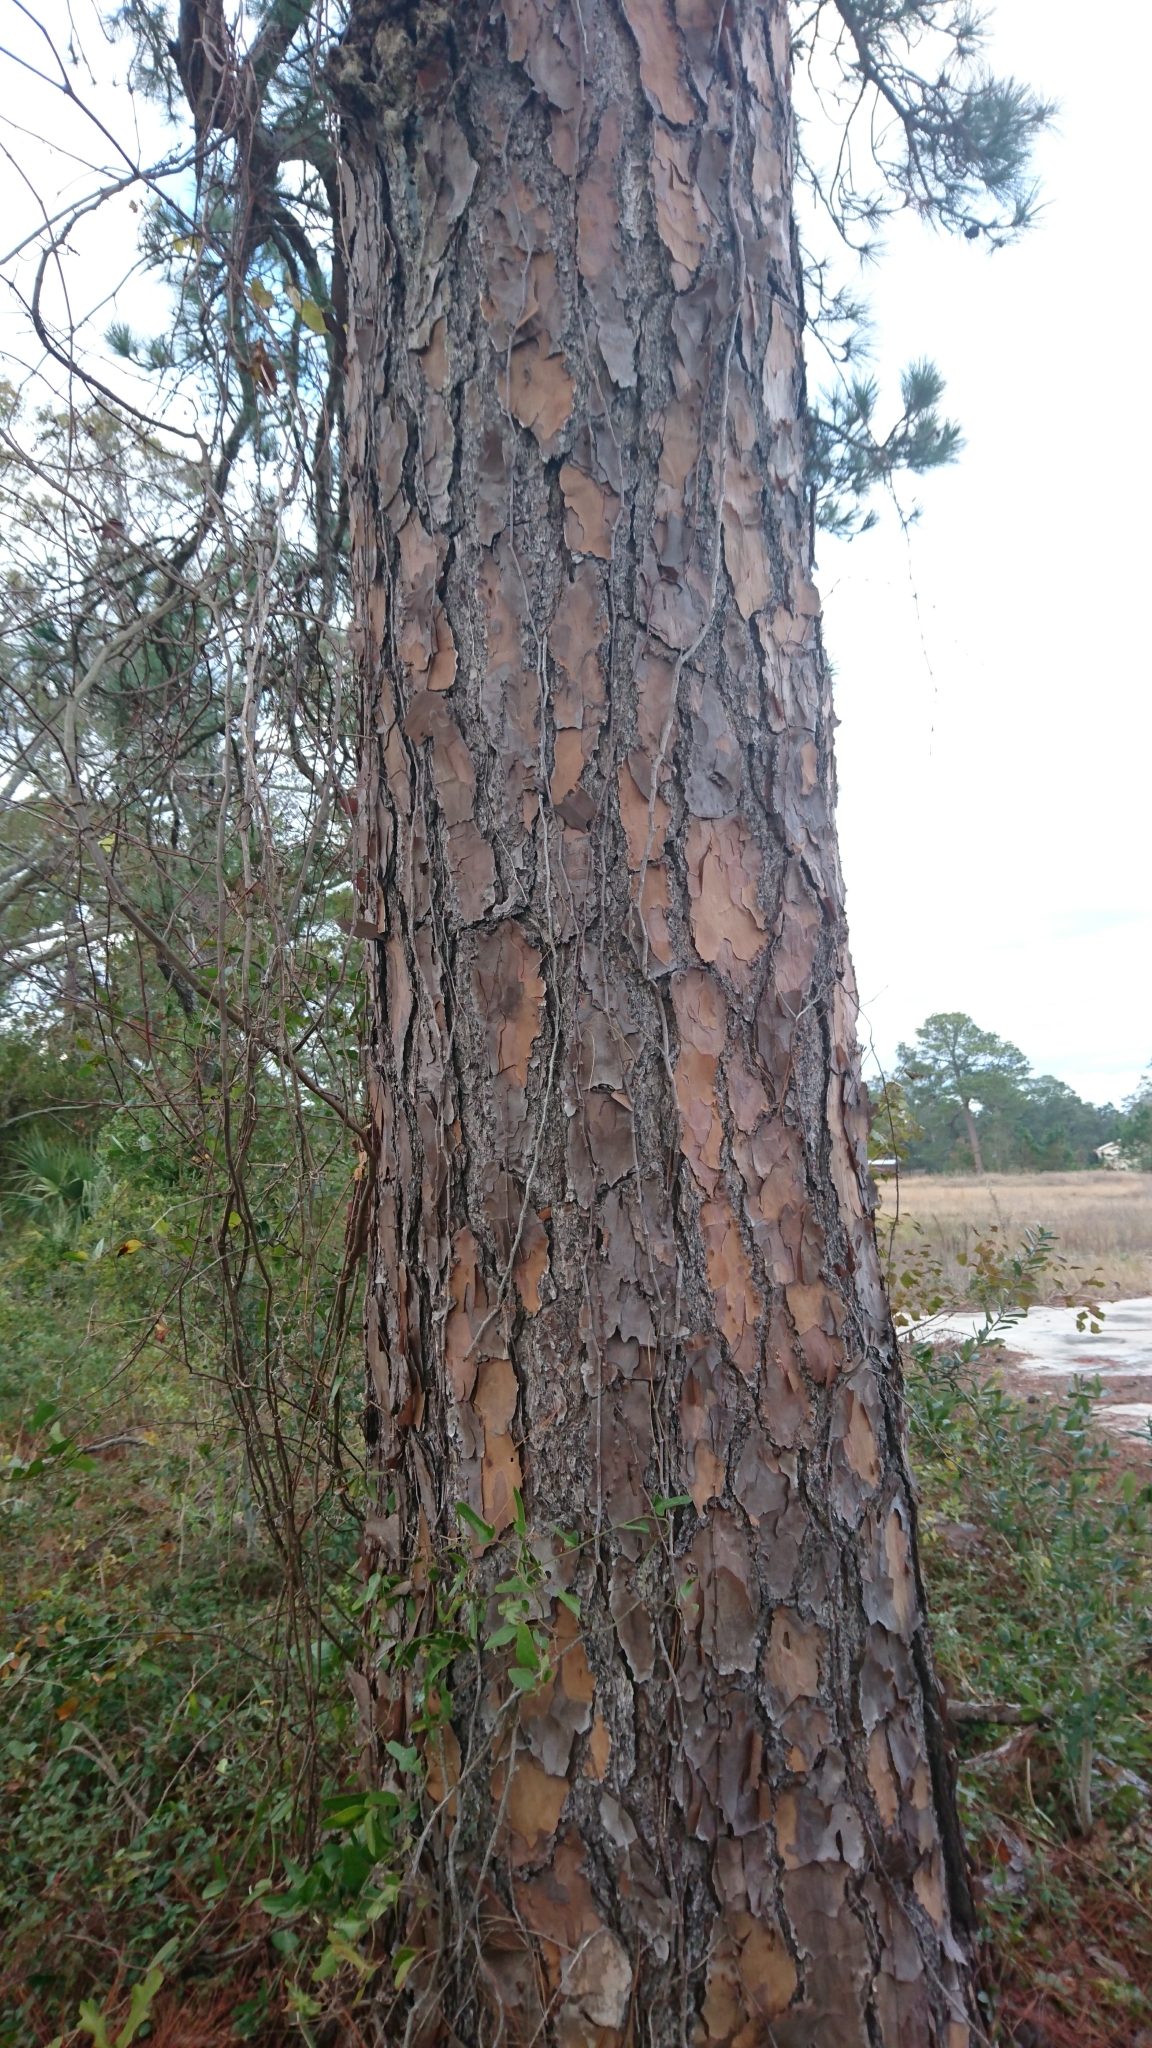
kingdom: Plantae
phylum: Tracheophyta
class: Pinopsida
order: Pinales
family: Pinaceae
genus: Pinus
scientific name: Pinus elliottii
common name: Slash pine
